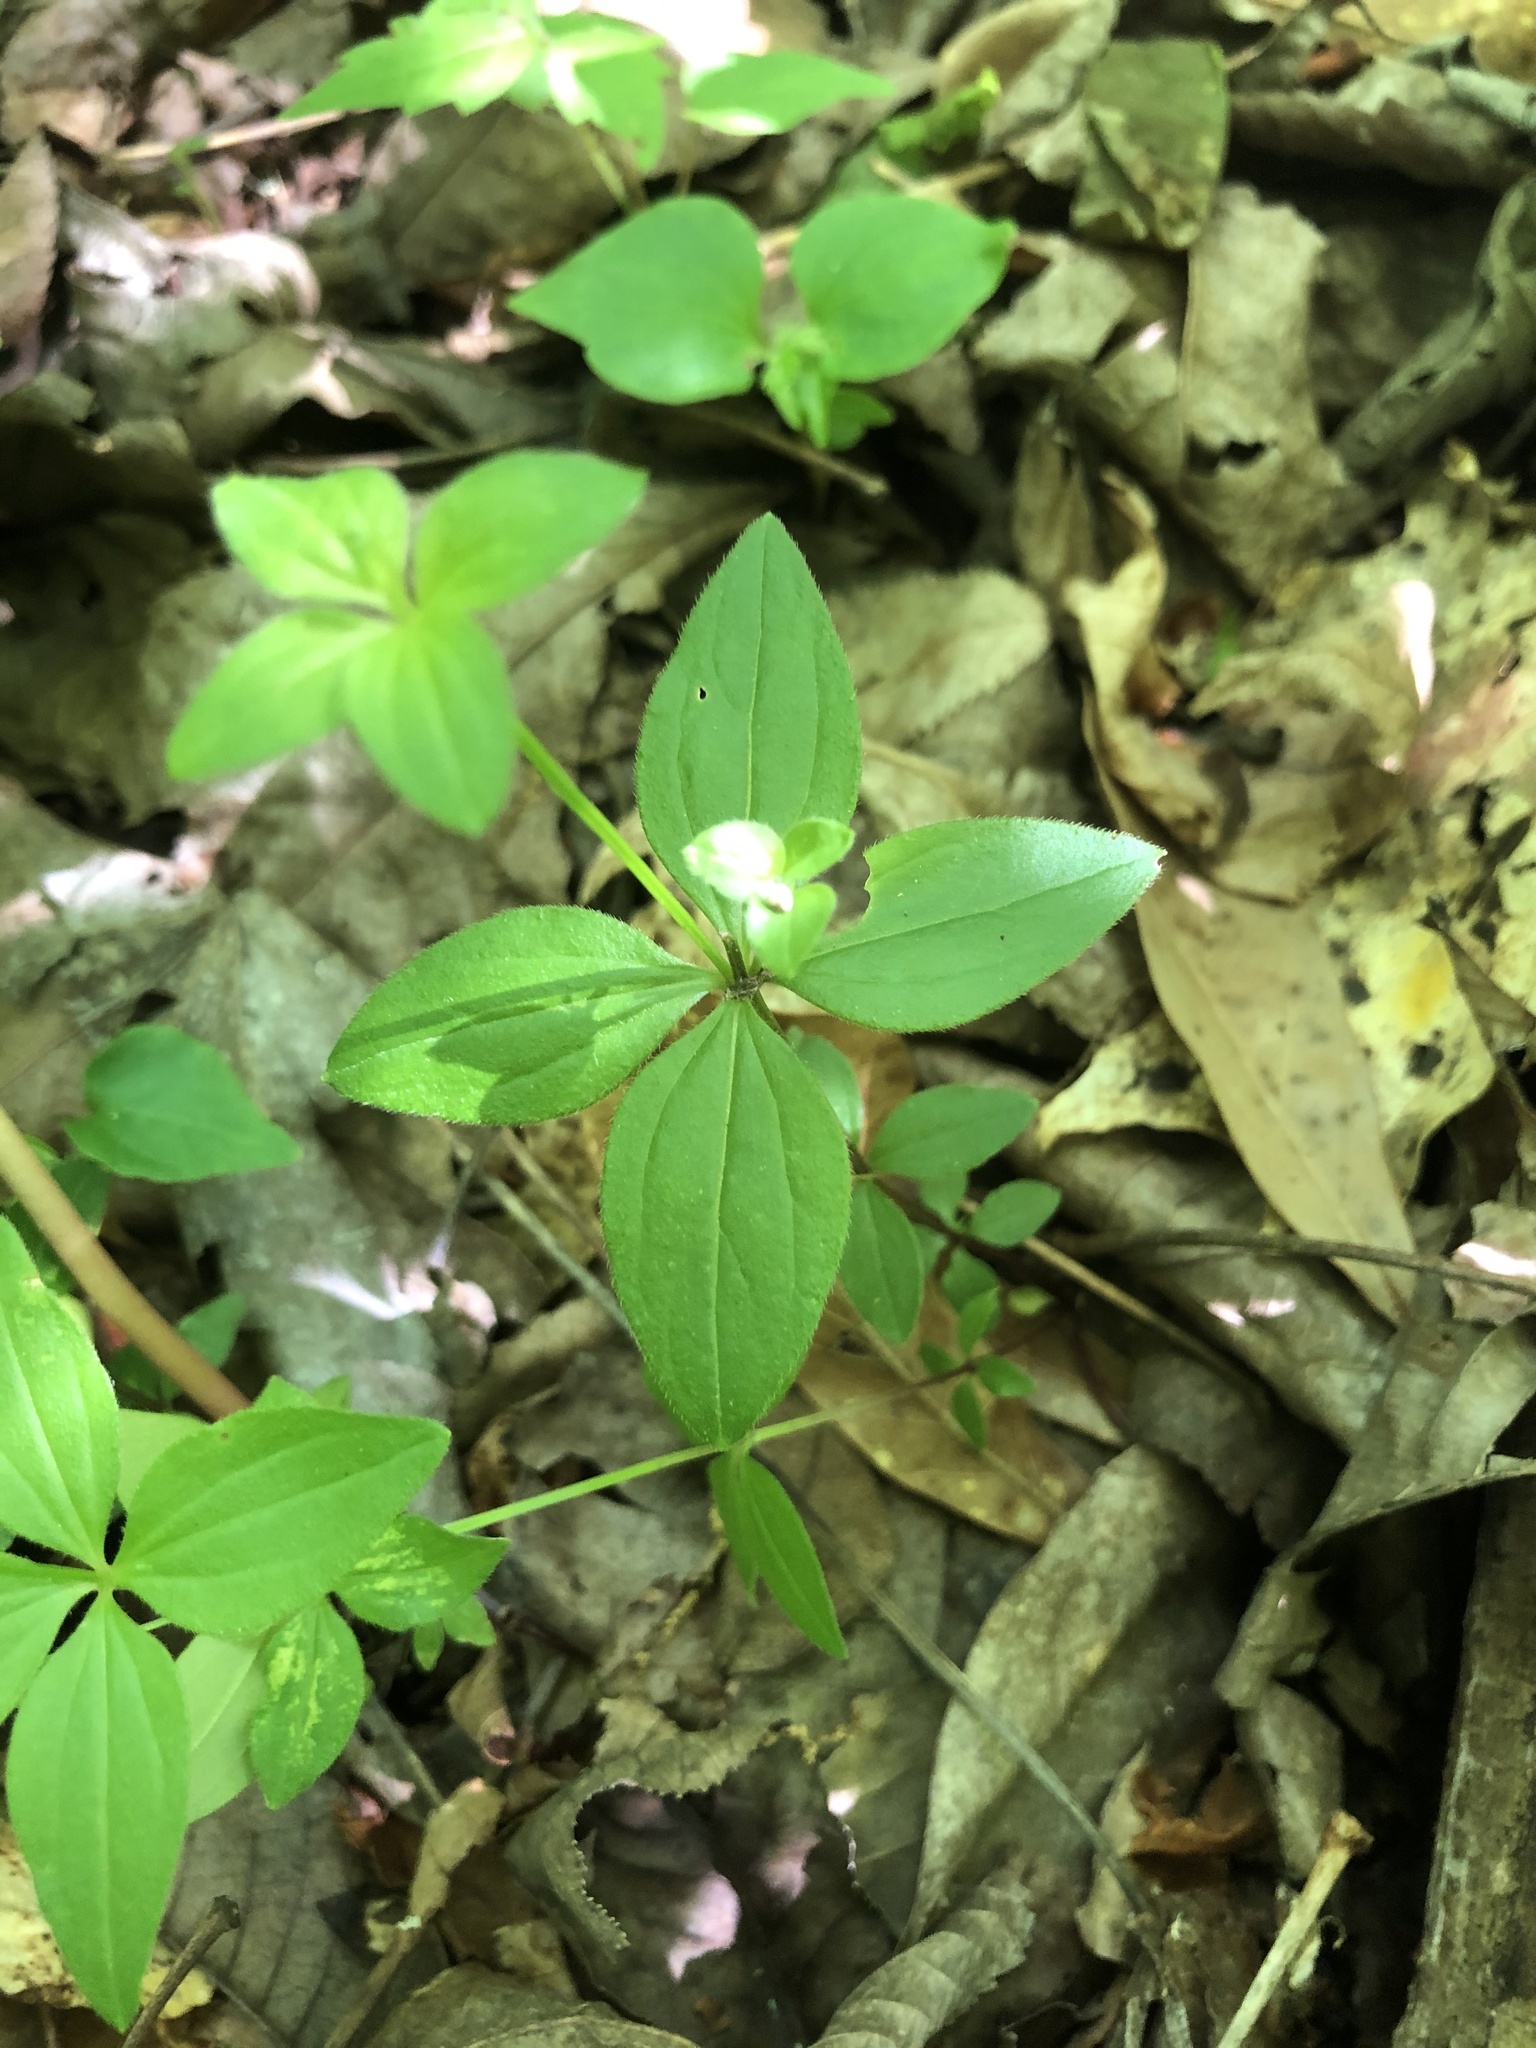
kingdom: Plantae
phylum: Tracheophyta
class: Magnoliopsida
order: Gentianales
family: Rubiaceae
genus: Galium
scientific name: Galium circaezans
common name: Forest bedstraw
